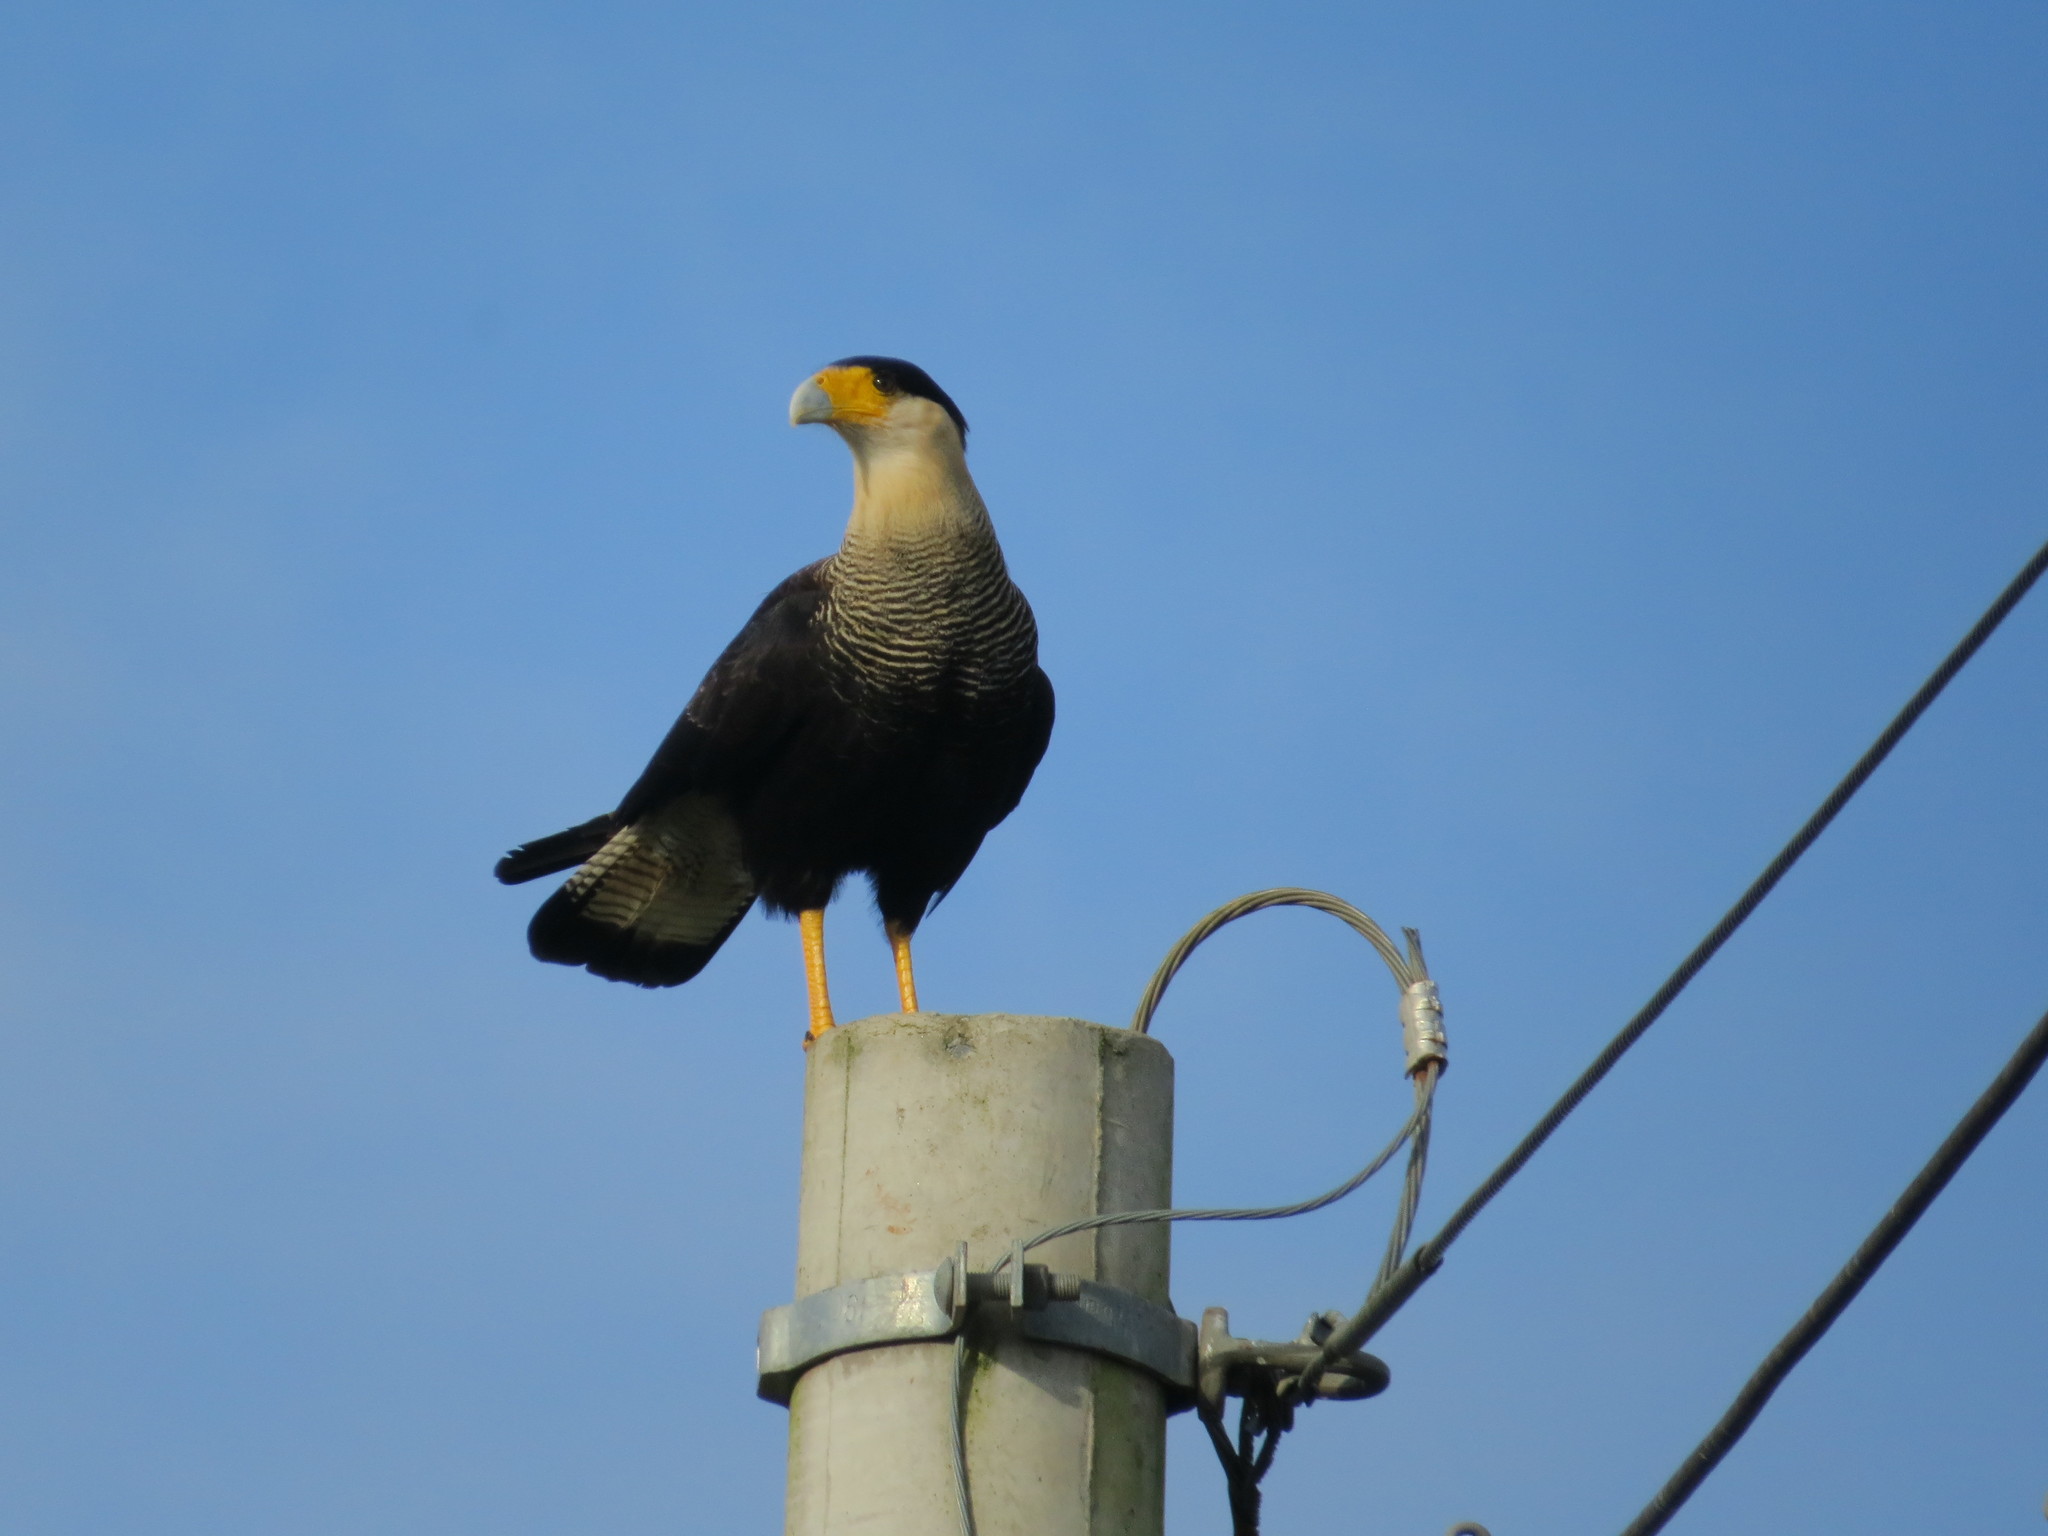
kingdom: Animalia
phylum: Chordata
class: Aves
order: Falconiformes
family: Falconidae
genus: Caracara
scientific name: Caracara plancus
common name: Southern caracara
